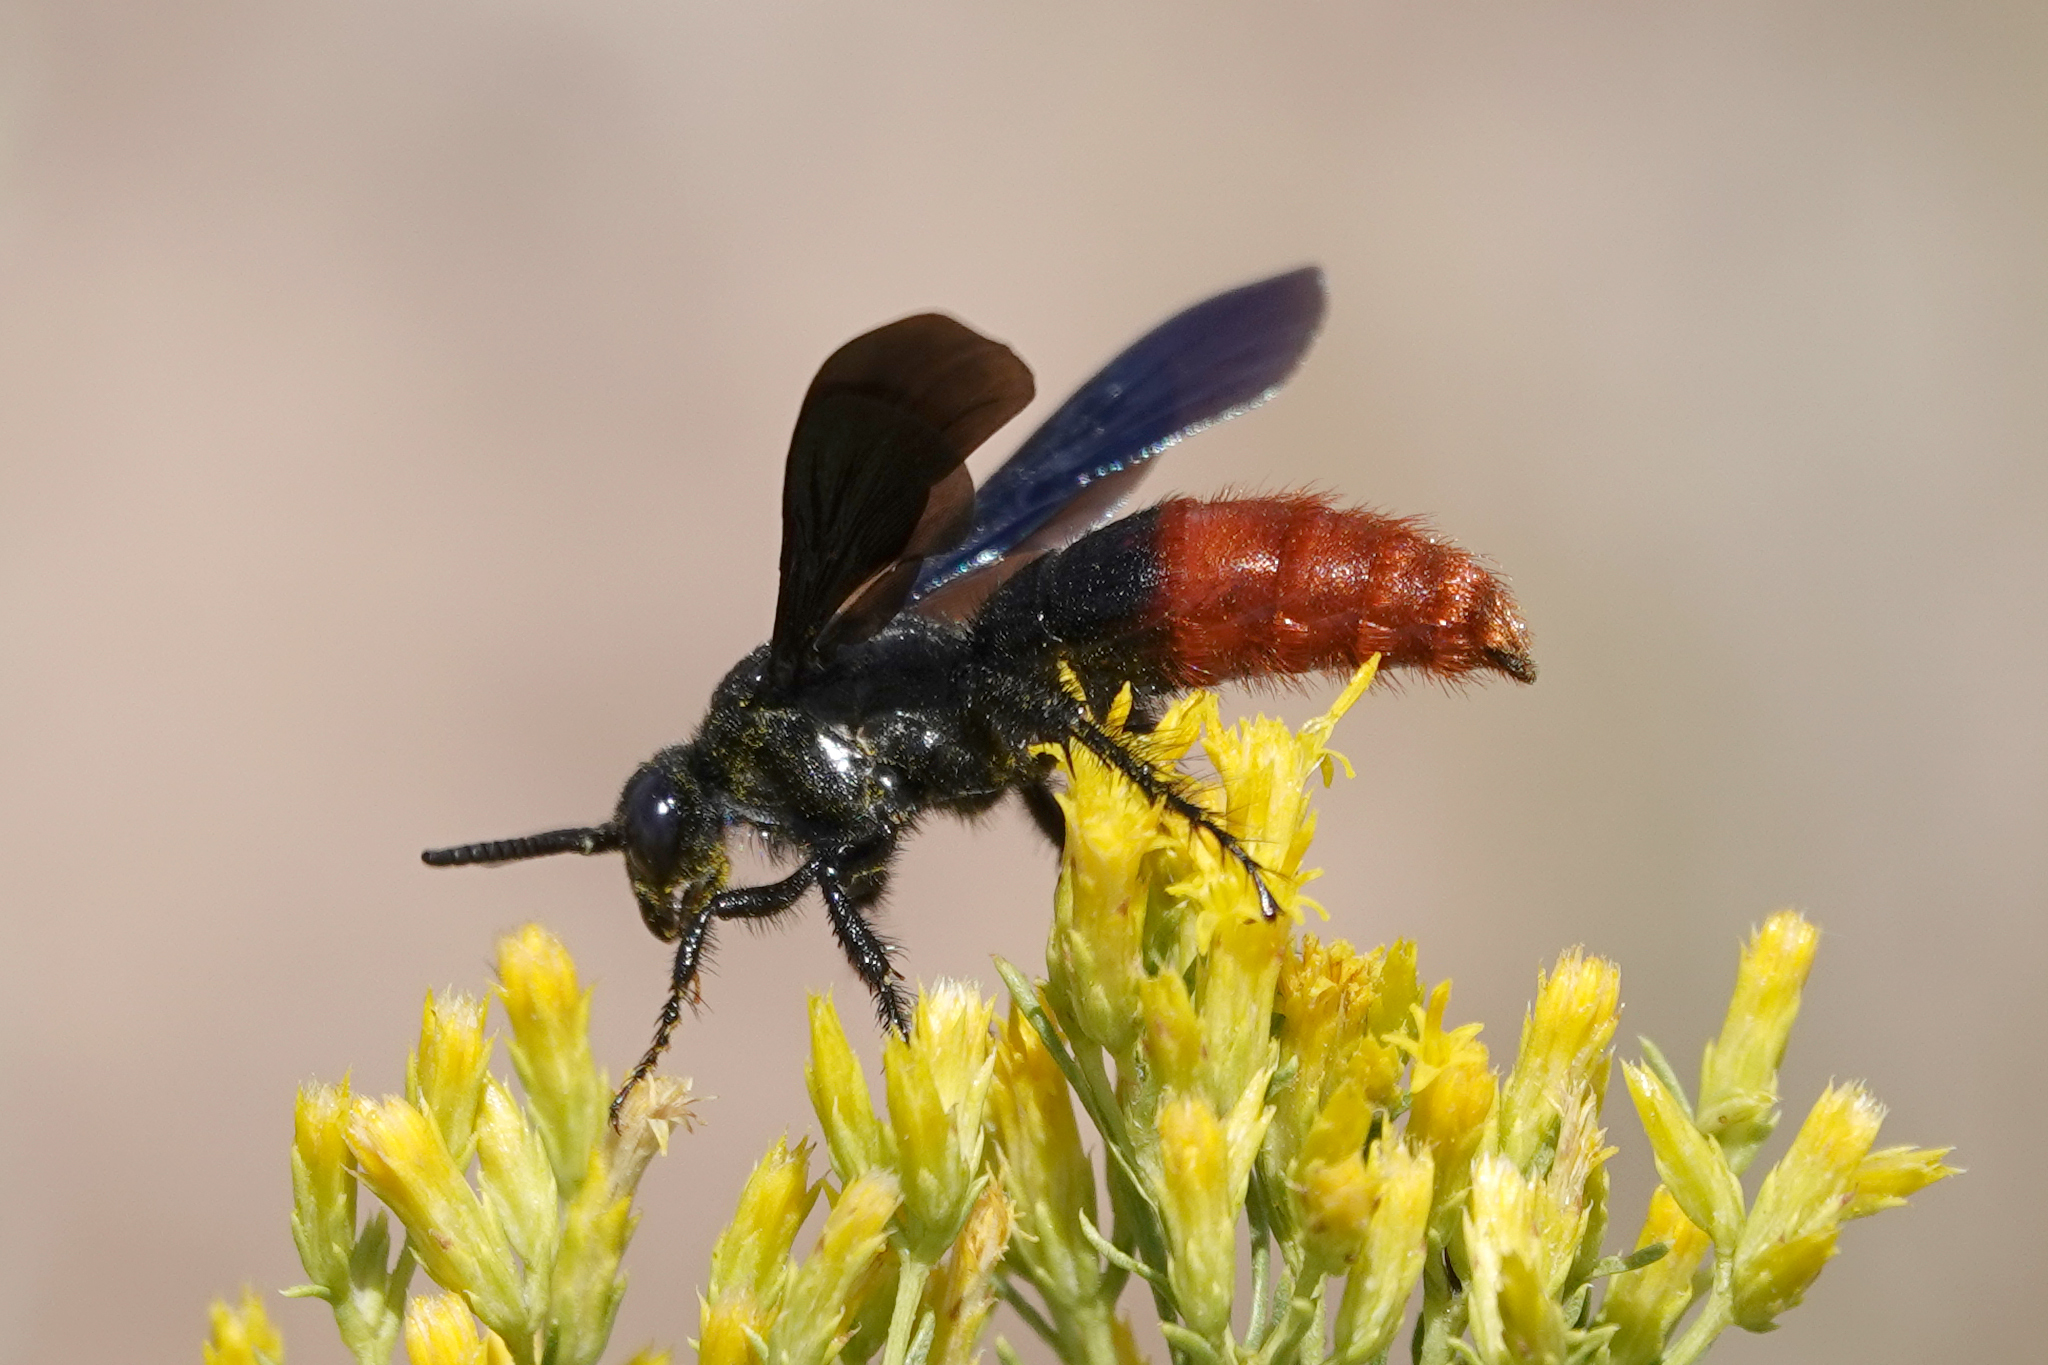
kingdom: Animalia
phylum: Arthropoda
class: Insecta
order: Hymenoptera
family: Scoliidae
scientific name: Scoliidae
